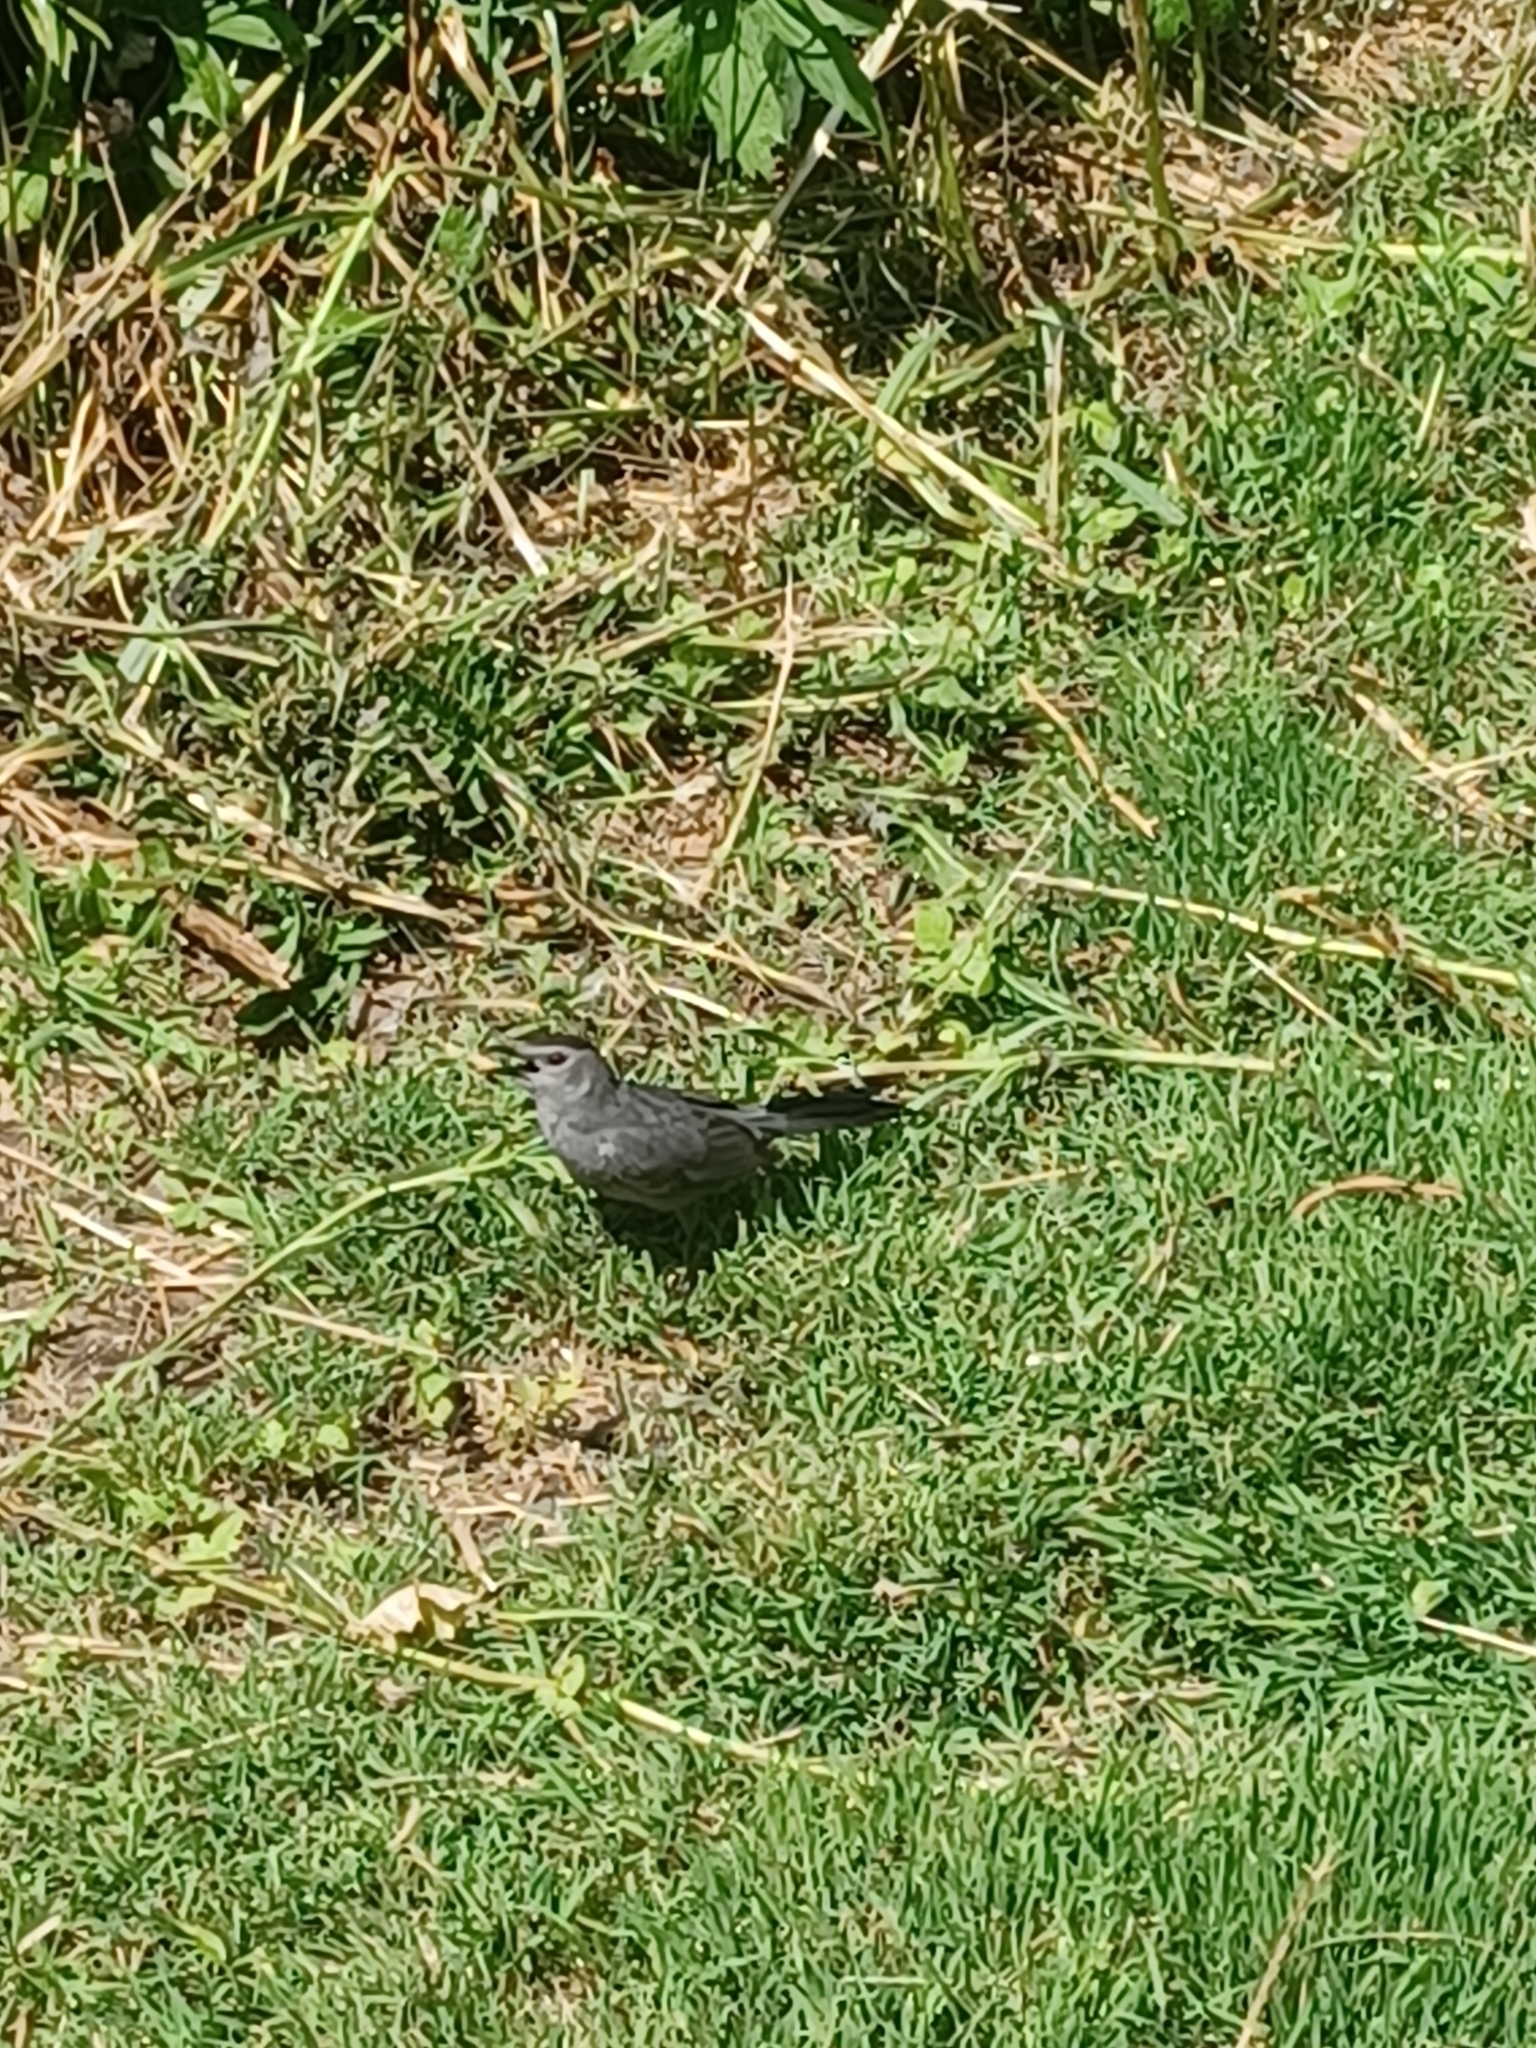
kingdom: Animalia
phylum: Chordata
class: Aves
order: Passeriformes
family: Mimidae
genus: Dumetella
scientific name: Dumetella carolinensis
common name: Gray catbird
